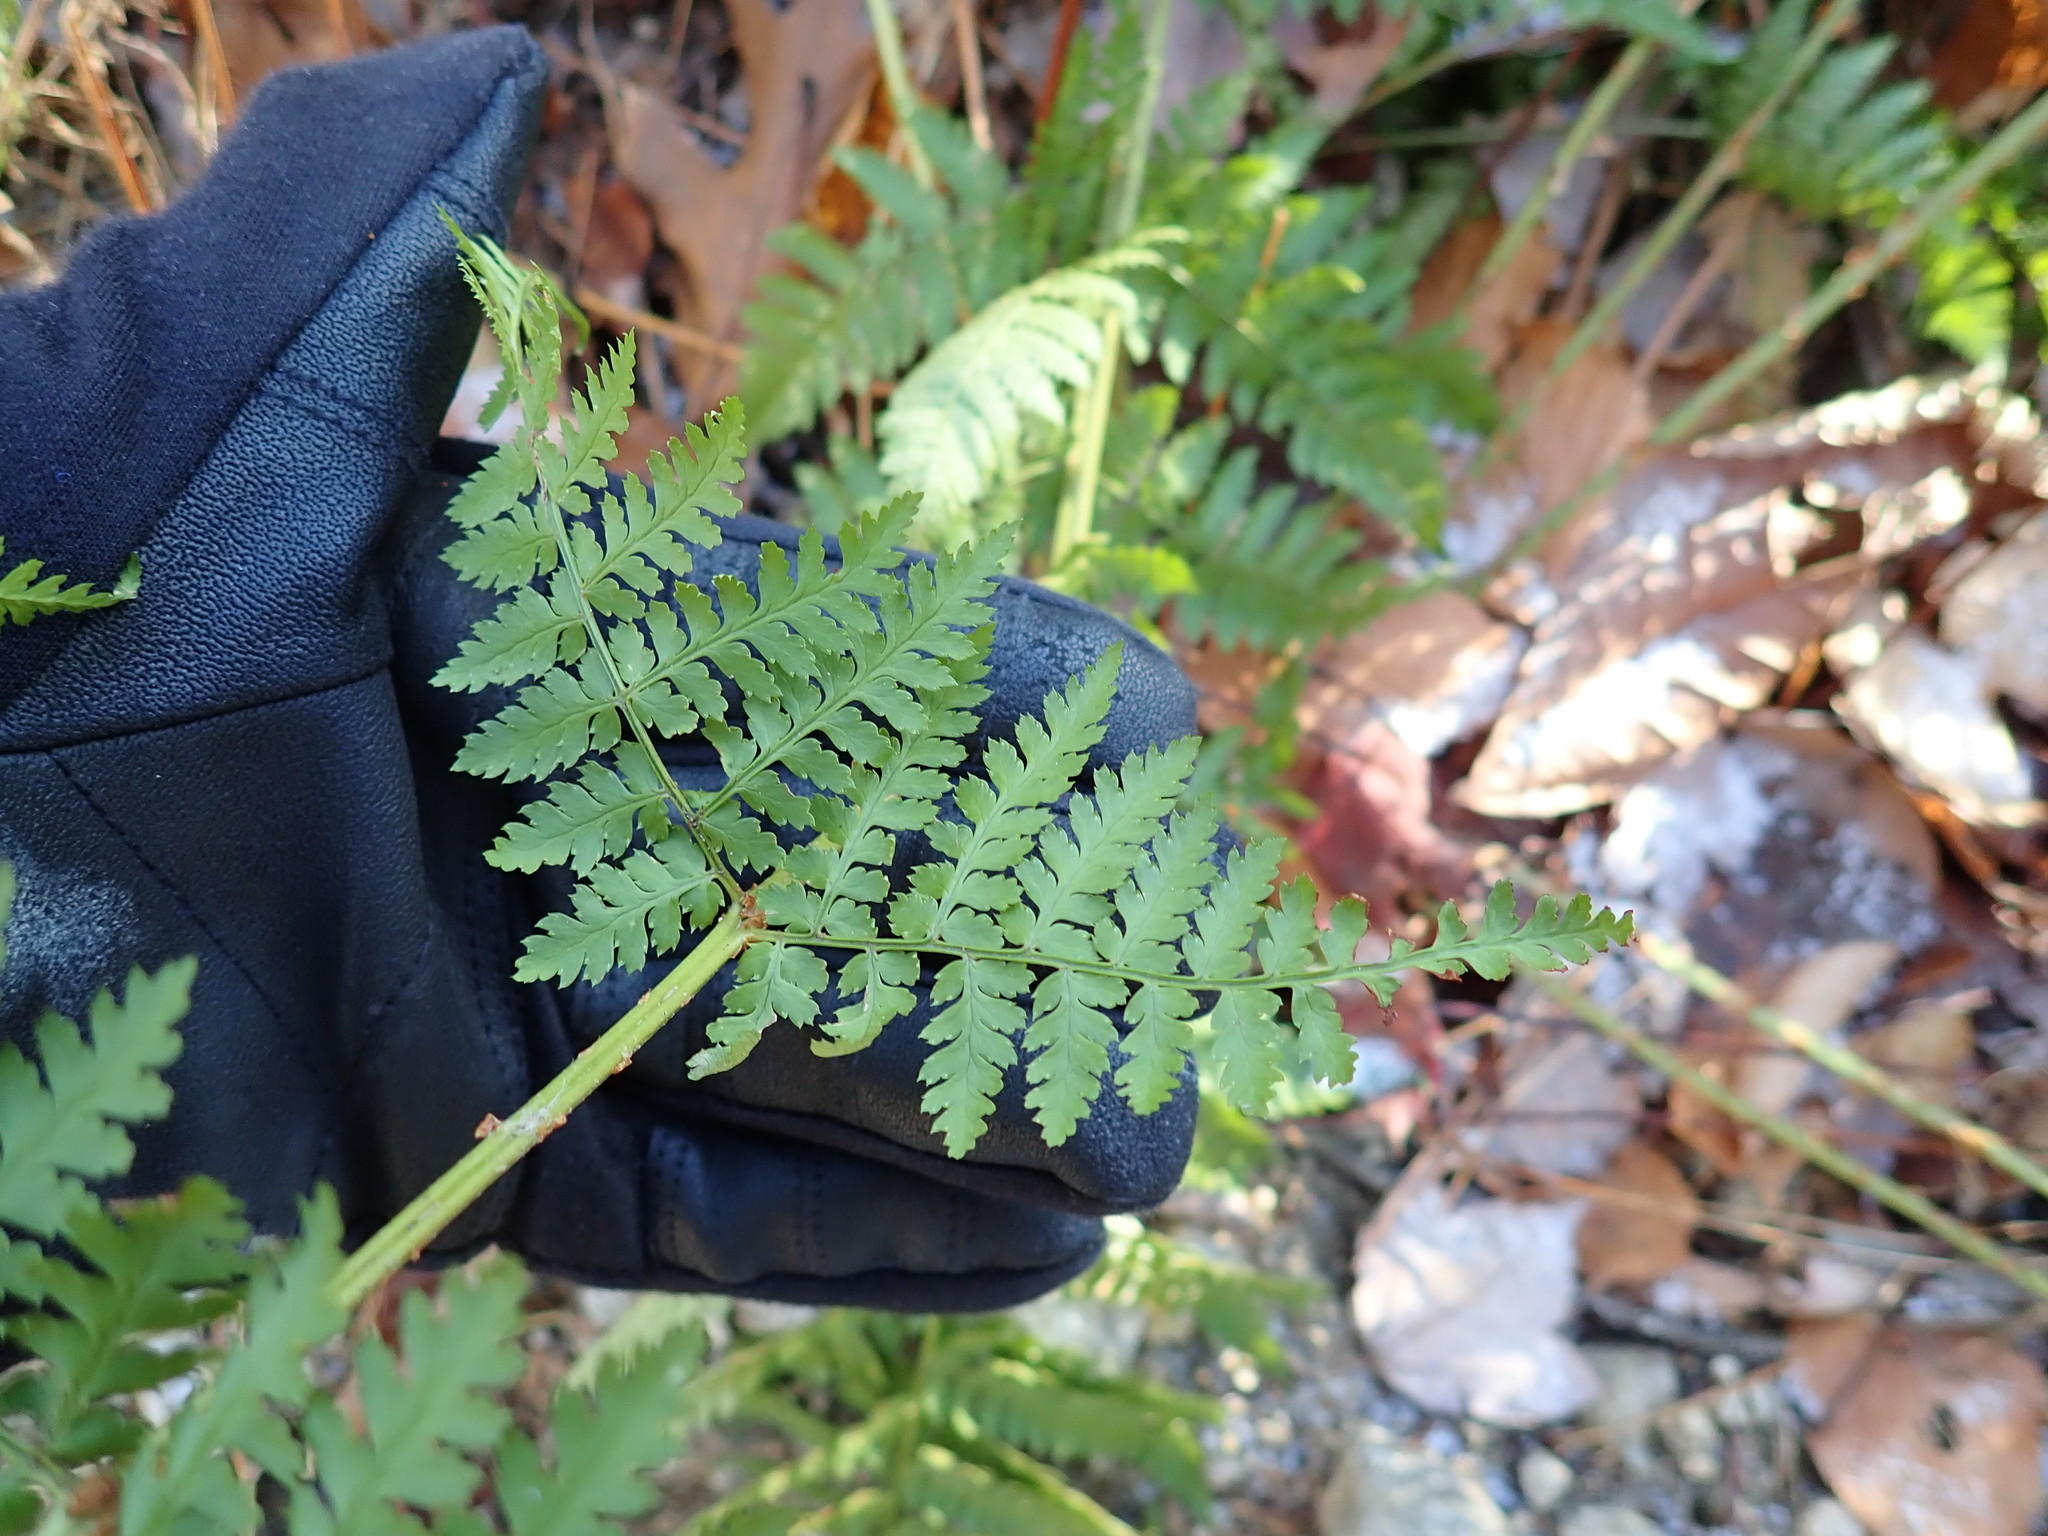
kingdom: Plantae
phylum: Tracheophyta
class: Polypodiopsida
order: Polypodiales
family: Dryopteridaceae
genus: Dryopteris
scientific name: Dryopteris campyloptera
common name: Mountain wood fern
